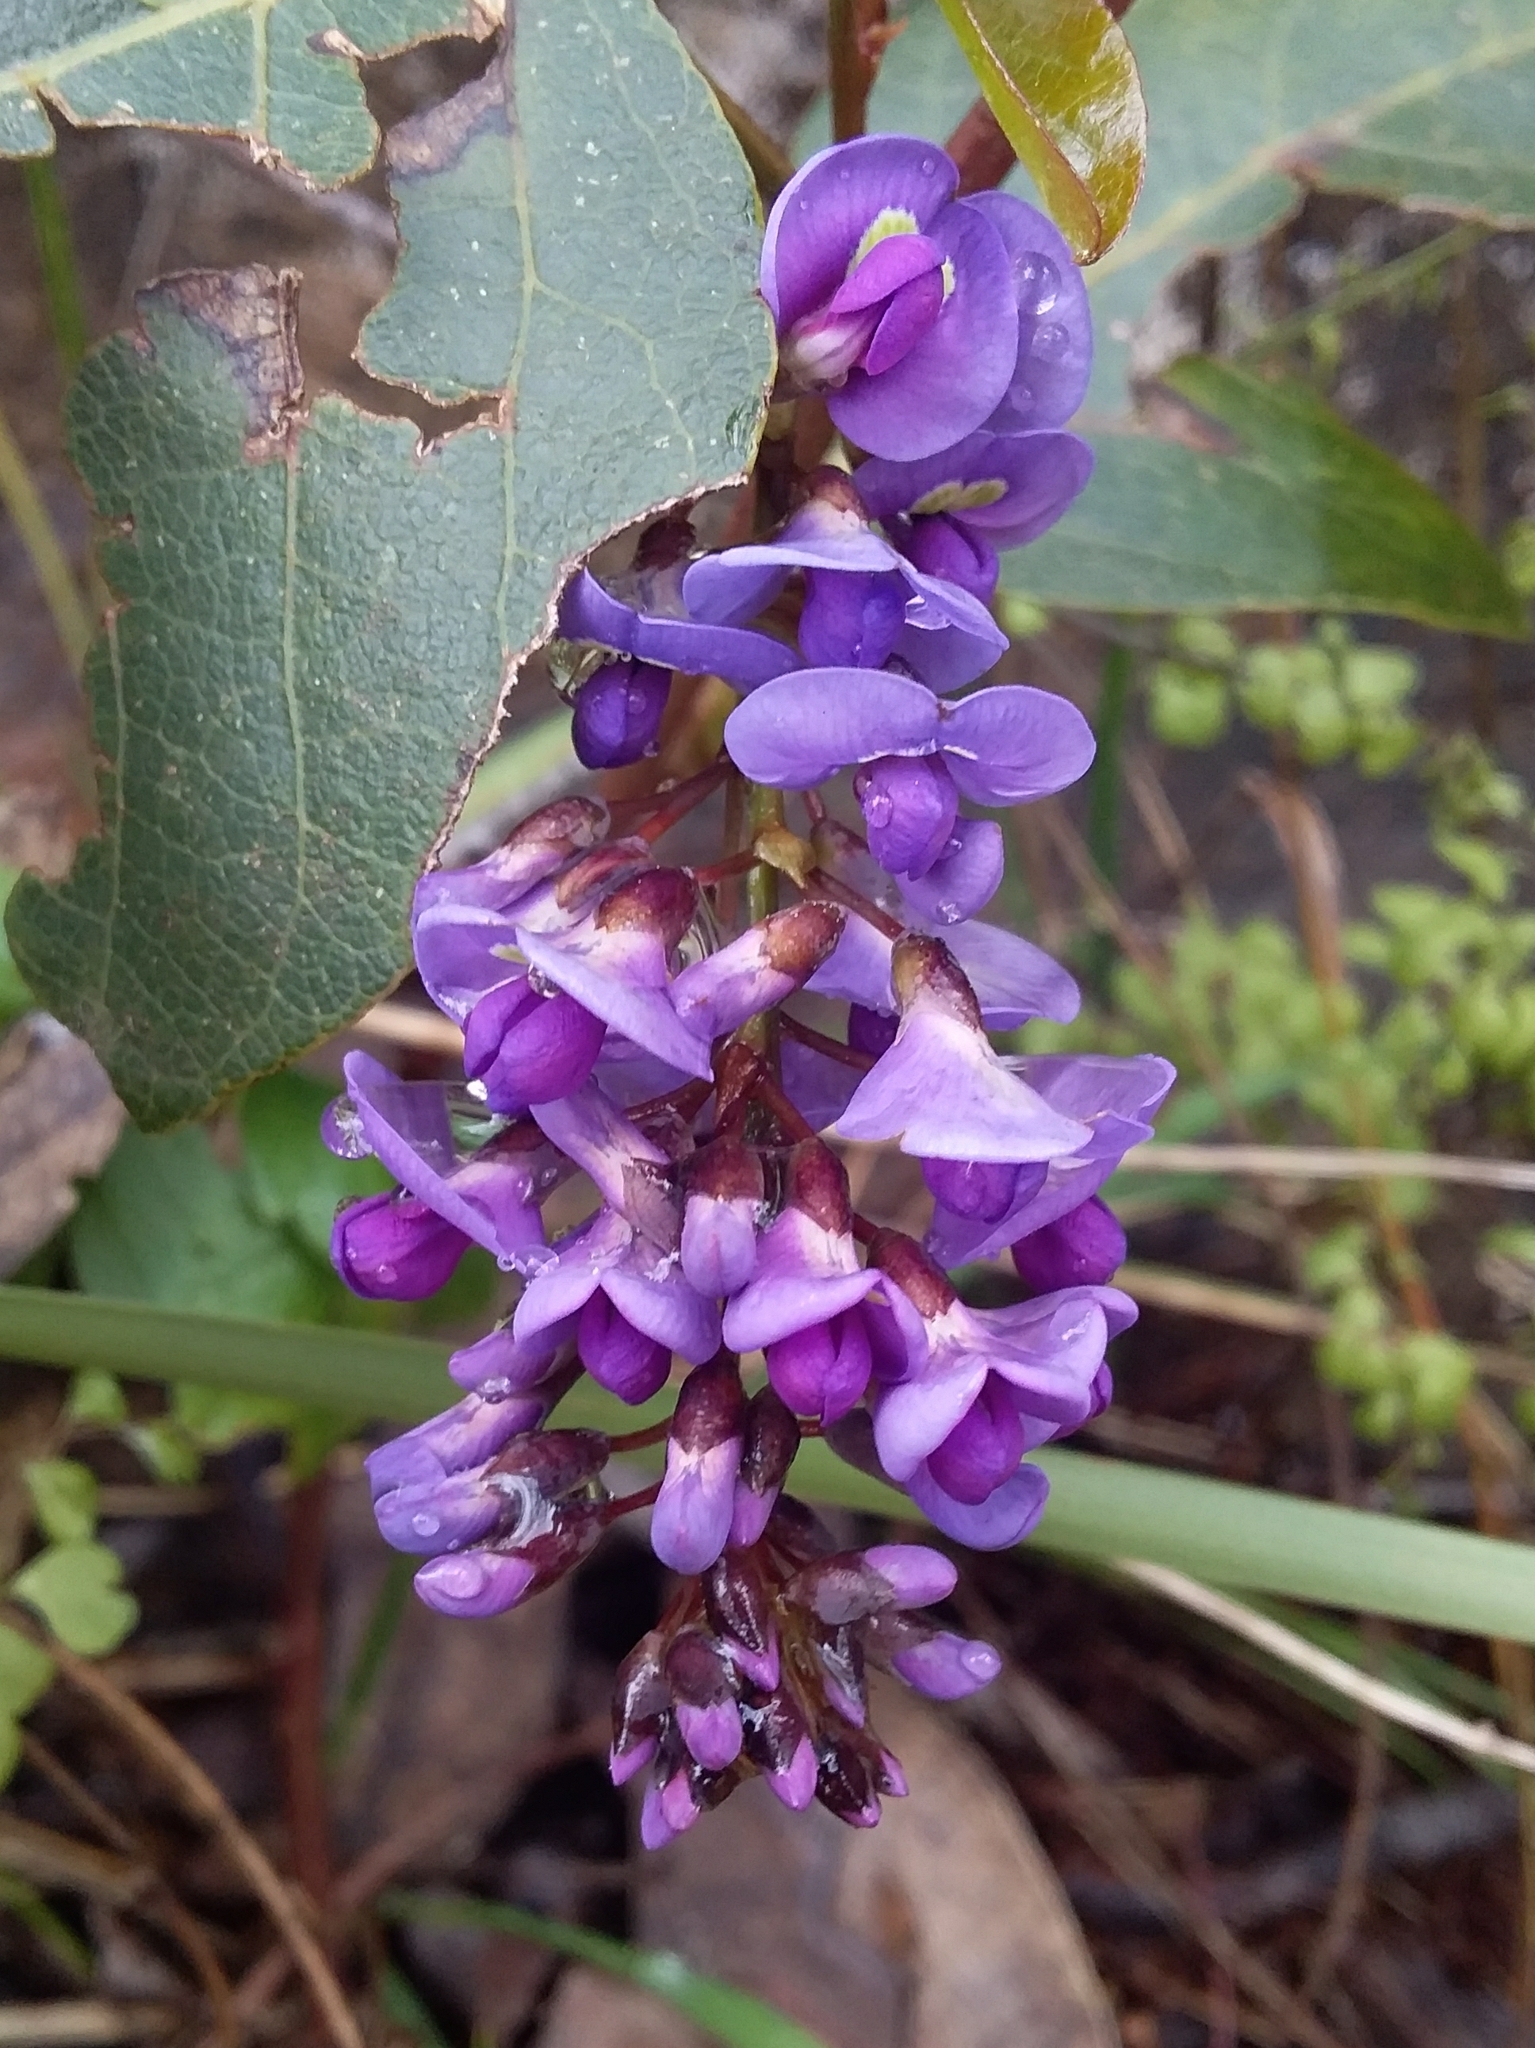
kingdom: Plantae
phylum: Tracheophyta
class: Magnoliopsida
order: Fabales
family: Fabaceae
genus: Hardenbergia
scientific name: Hardenbergia violacea
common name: Coral-pea
